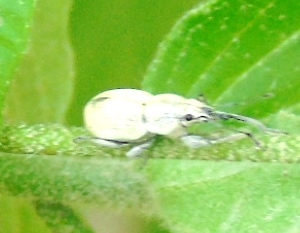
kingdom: Animalia
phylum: Arthropoda
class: Insecta
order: Coleoptera
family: Curculionidae
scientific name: Curculionidae
